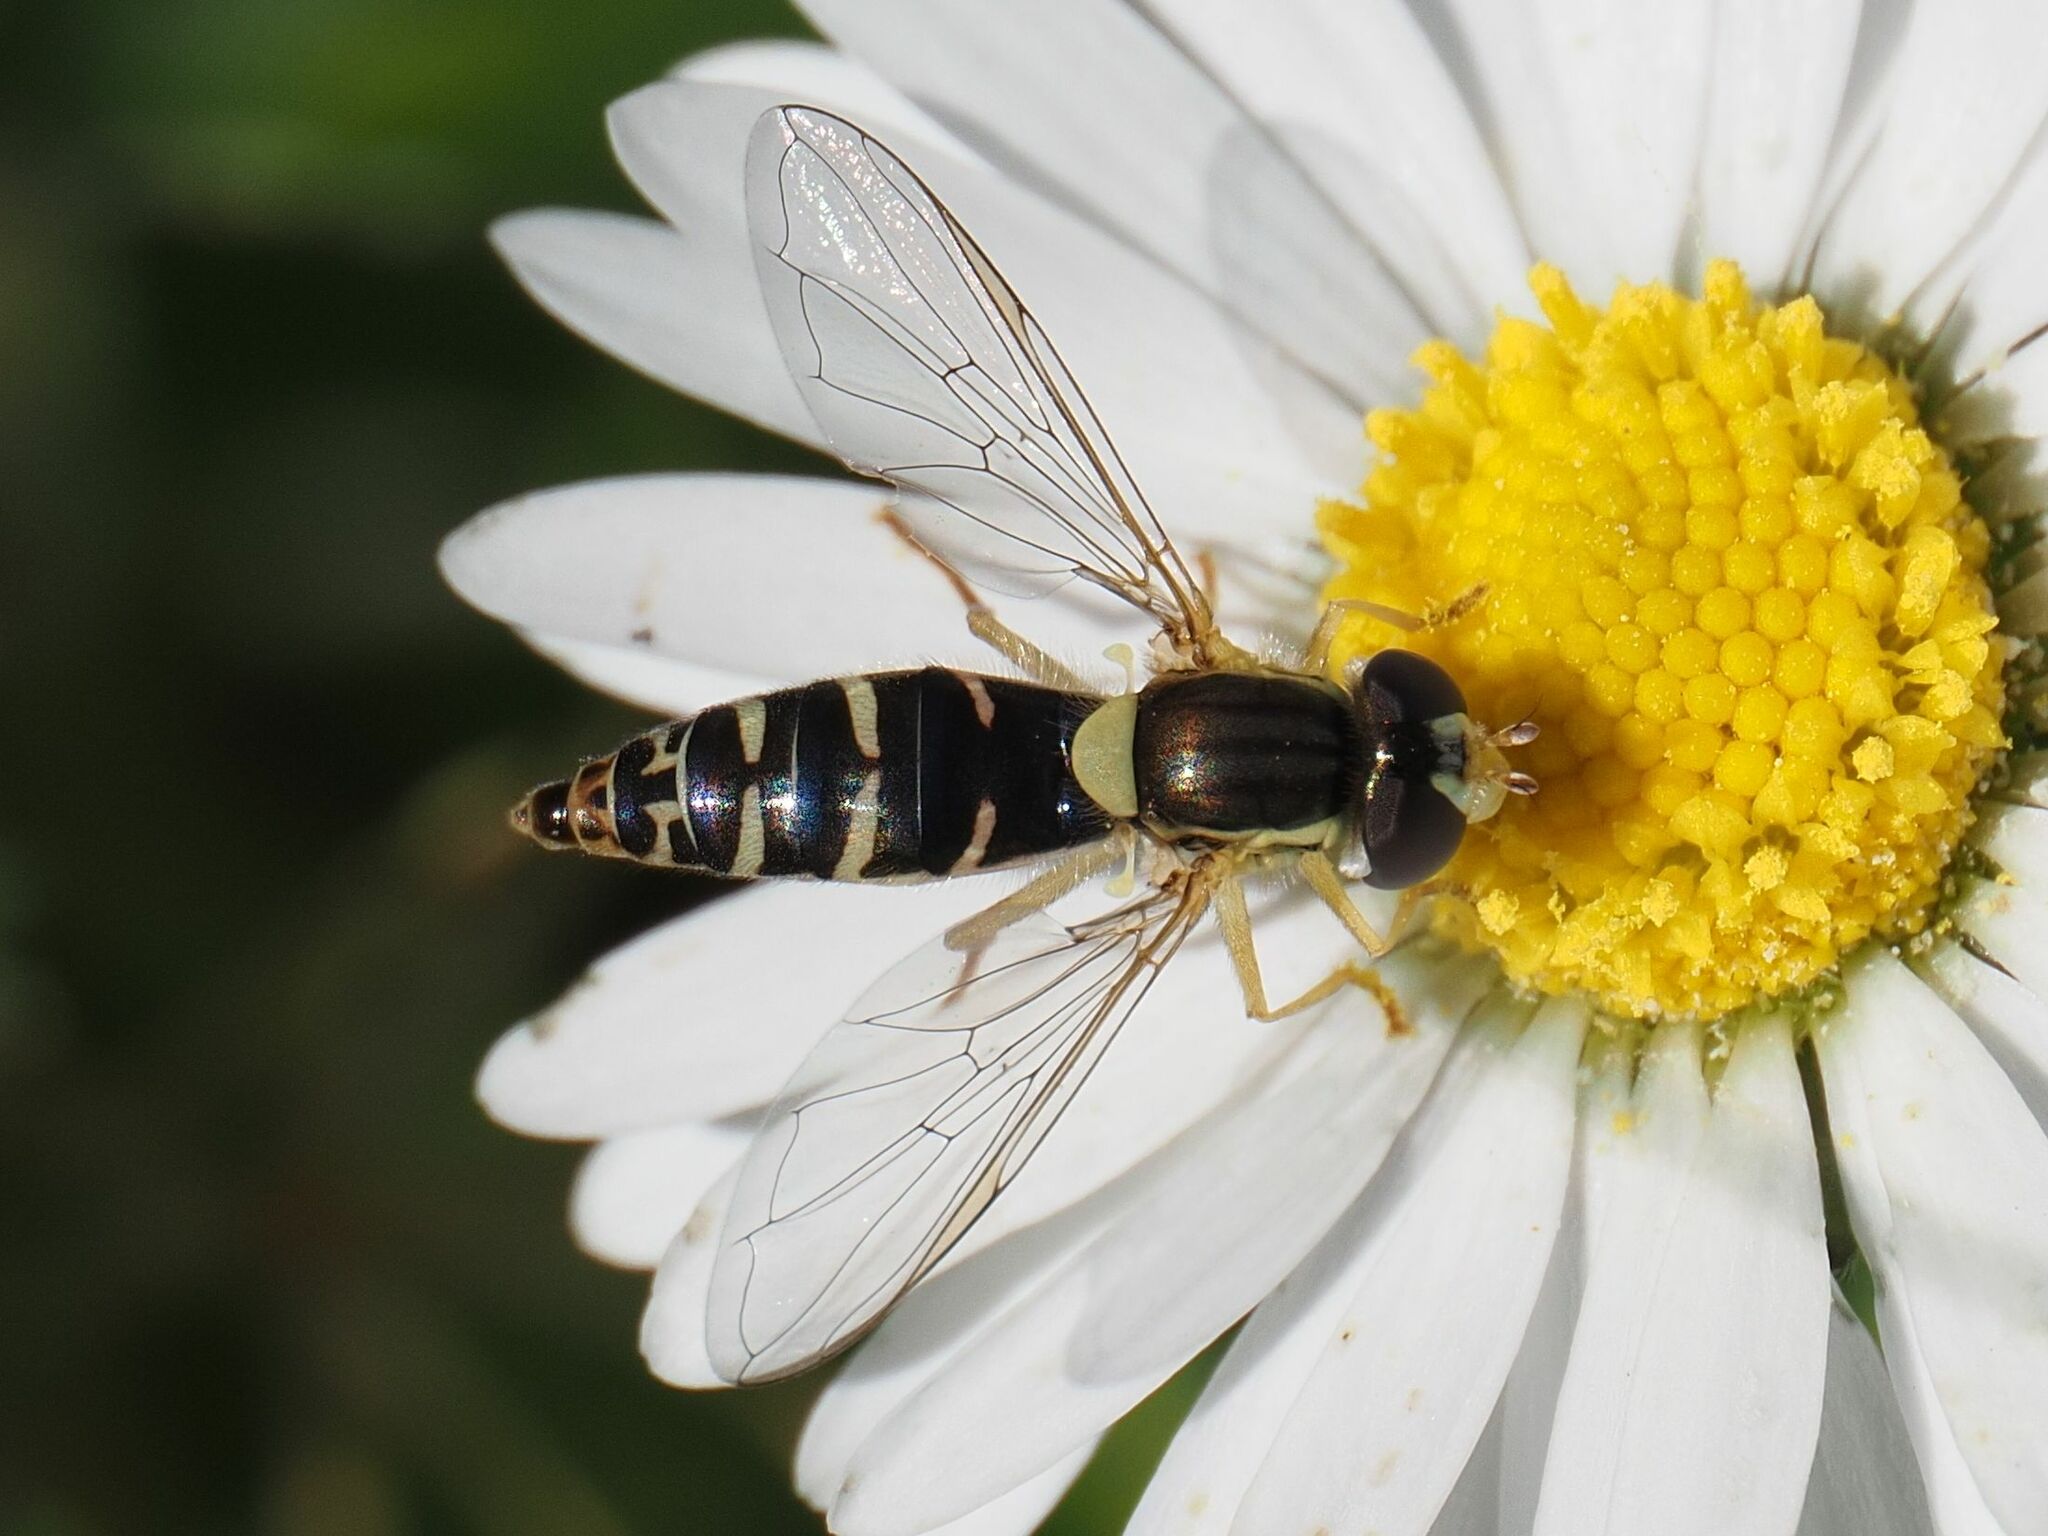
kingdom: Animalia
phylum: Arthropoda
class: Insecta
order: Diptera
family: Syrphidae
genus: Sphaerophoria
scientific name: Sphaerophoria
